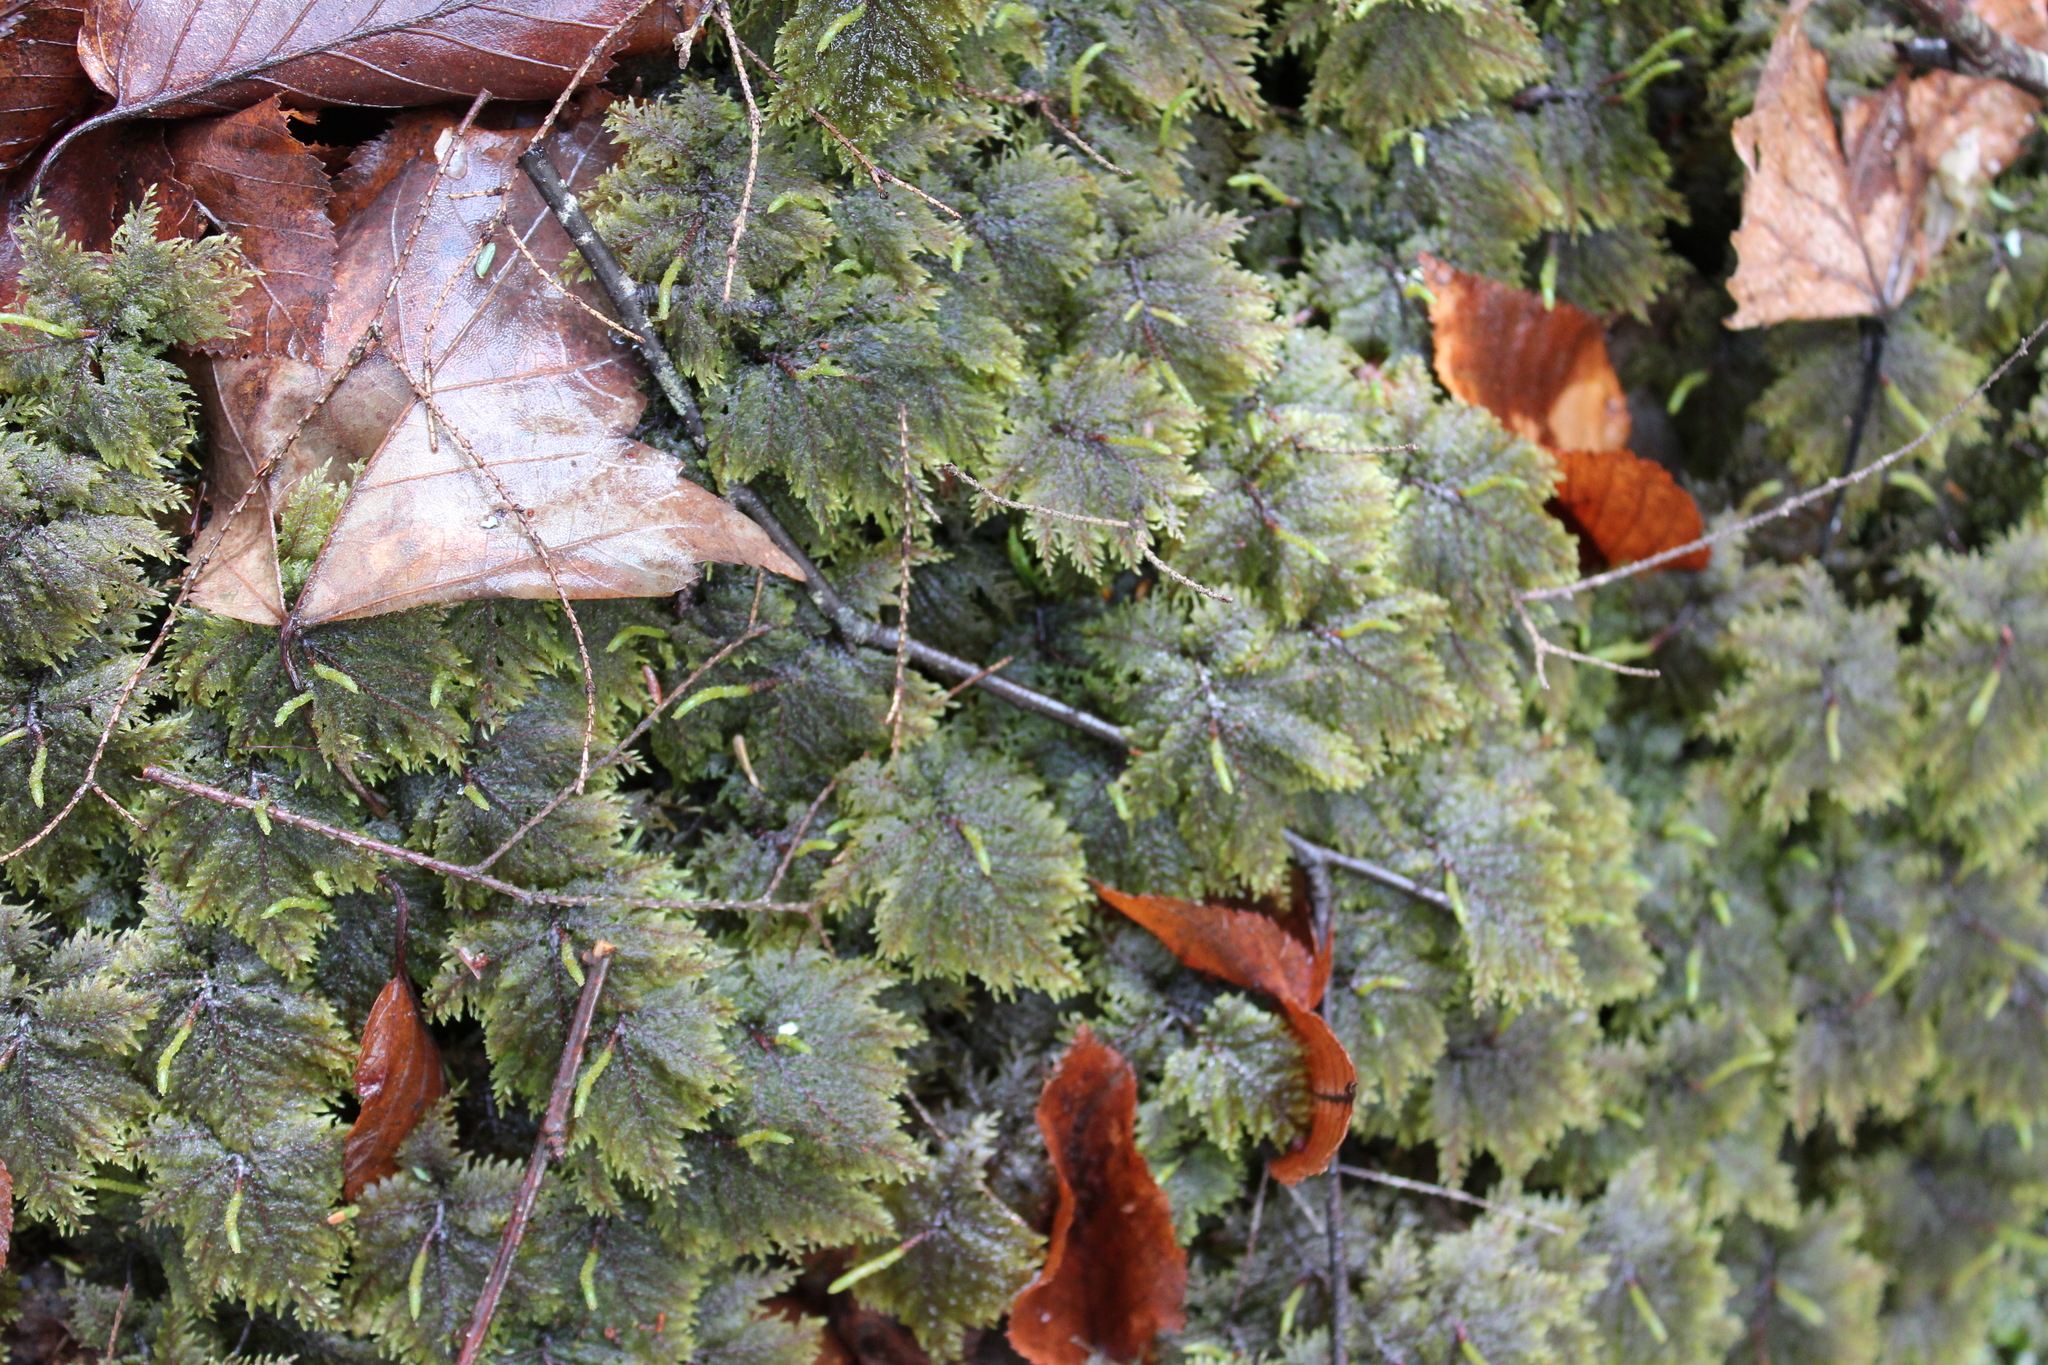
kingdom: Plantae
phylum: Bryophyta
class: Bryopsida
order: Hypnales
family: Hylocomiaceae
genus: Hylocomium
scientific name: Hylocomium splendens
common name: Stairstep moss
